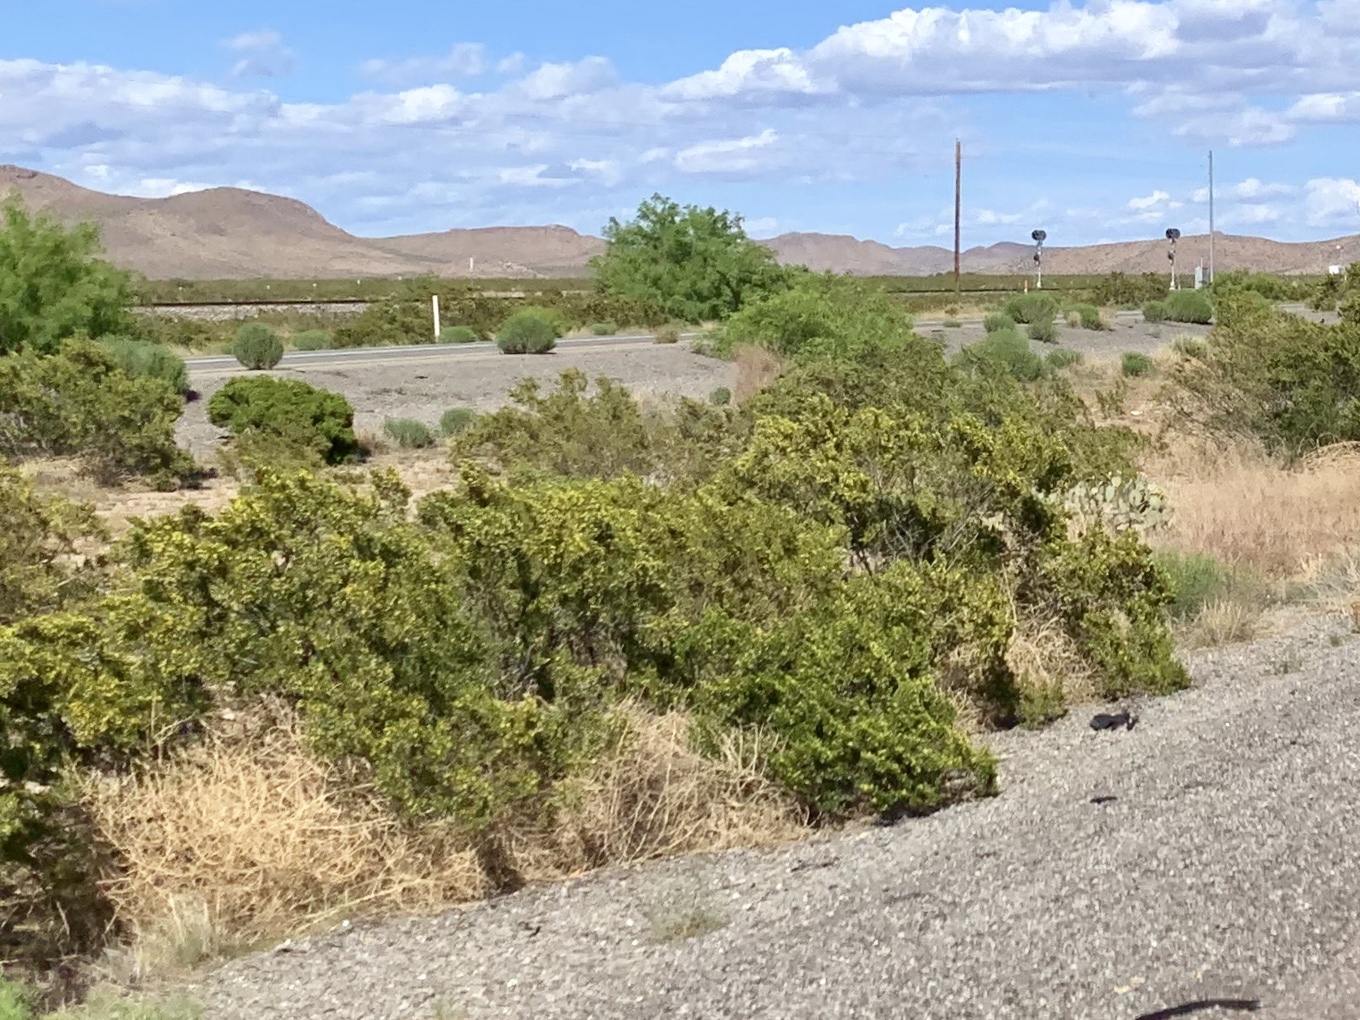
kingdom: Plantae
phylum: Tracheophyta
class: Magnoliopsida
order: Zygophyllales
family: Zygophyllaceae
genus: Larrea
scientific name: Larrea tridentata
